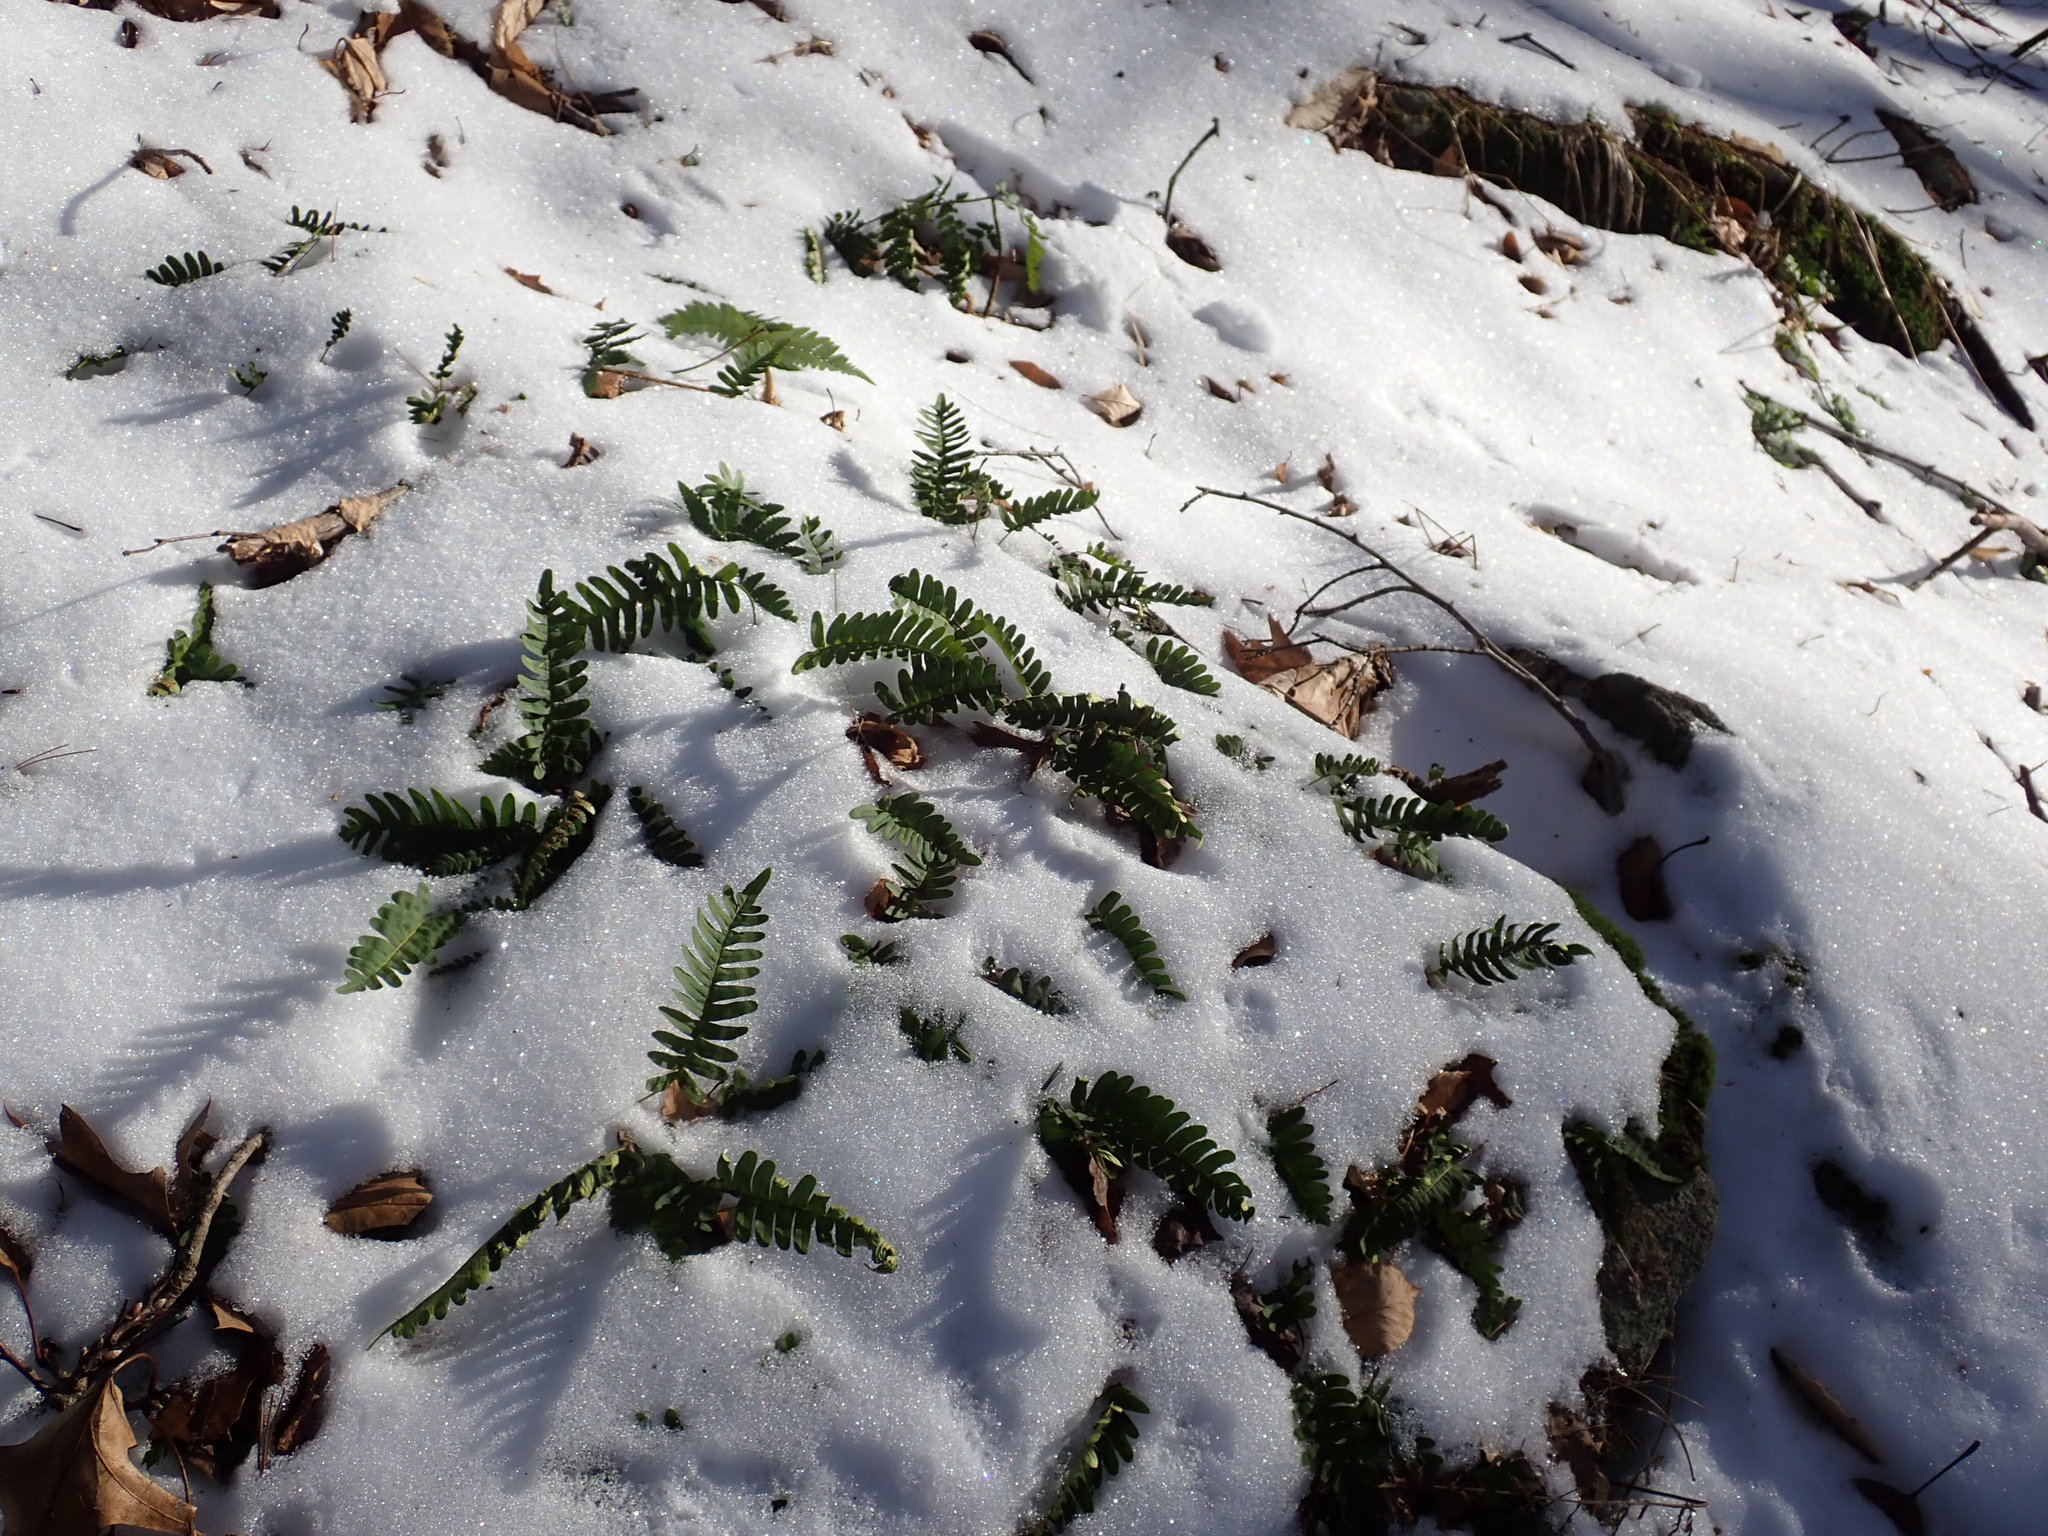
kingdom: Plantae
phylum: Tracheophyta
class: Polypodiopsida
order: Polypodiales
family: Polypodiaceae
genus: Polypodium
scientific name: Polypodium
